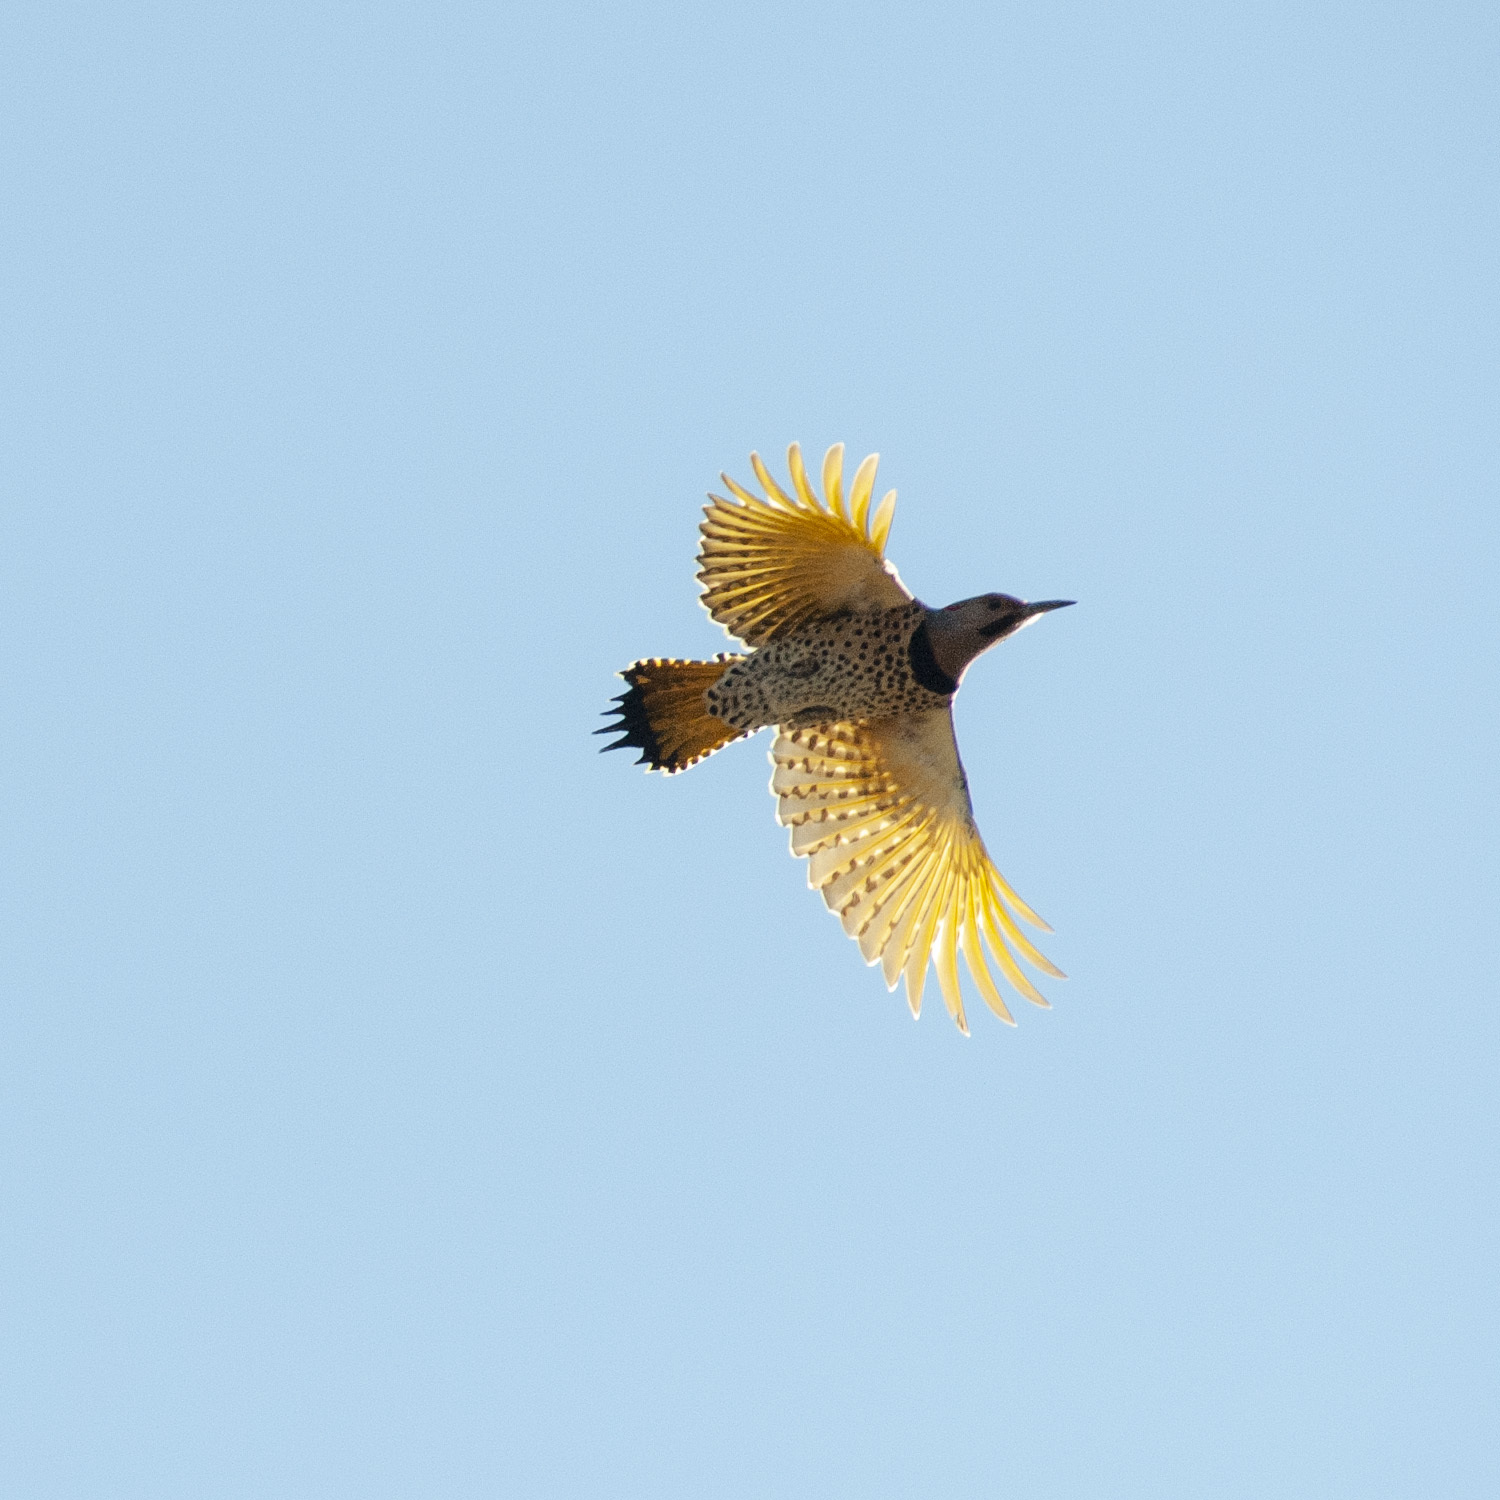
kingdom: Animalia
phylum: Chordata
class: Aves
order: Piciformes
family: Picidae
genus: Colaptes
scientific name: Colaptes auratus
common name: Northern flicker
